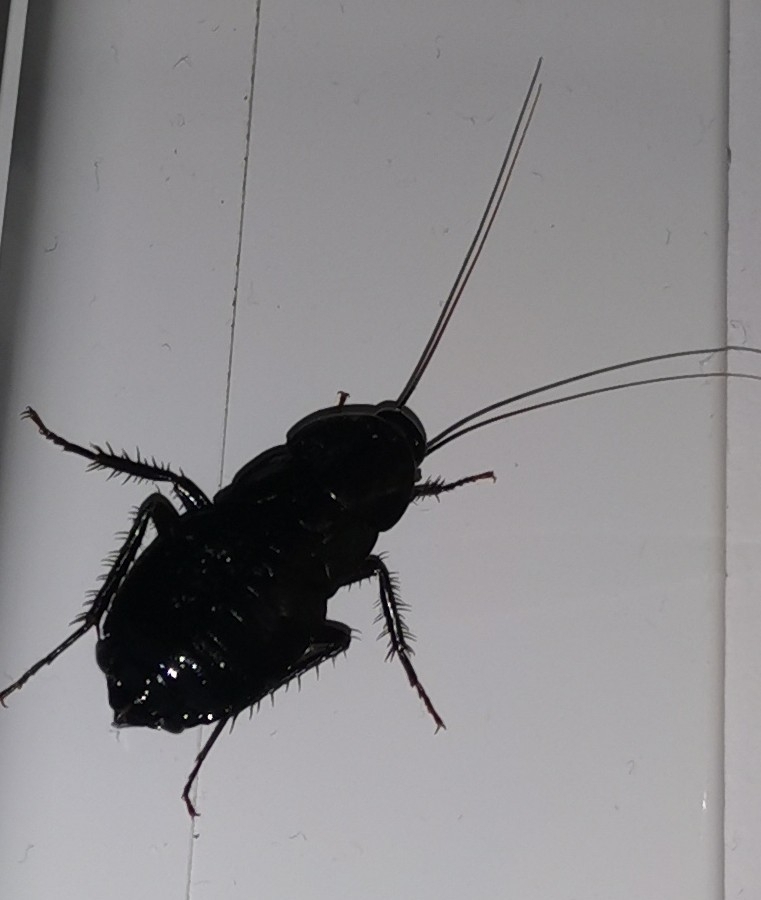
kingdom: Animalia
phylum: Arthropoda
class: Insecta
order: Blattodea
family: Blattidae
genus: Blatta
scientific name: Blatta orientalis
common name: Oriental cockroach
